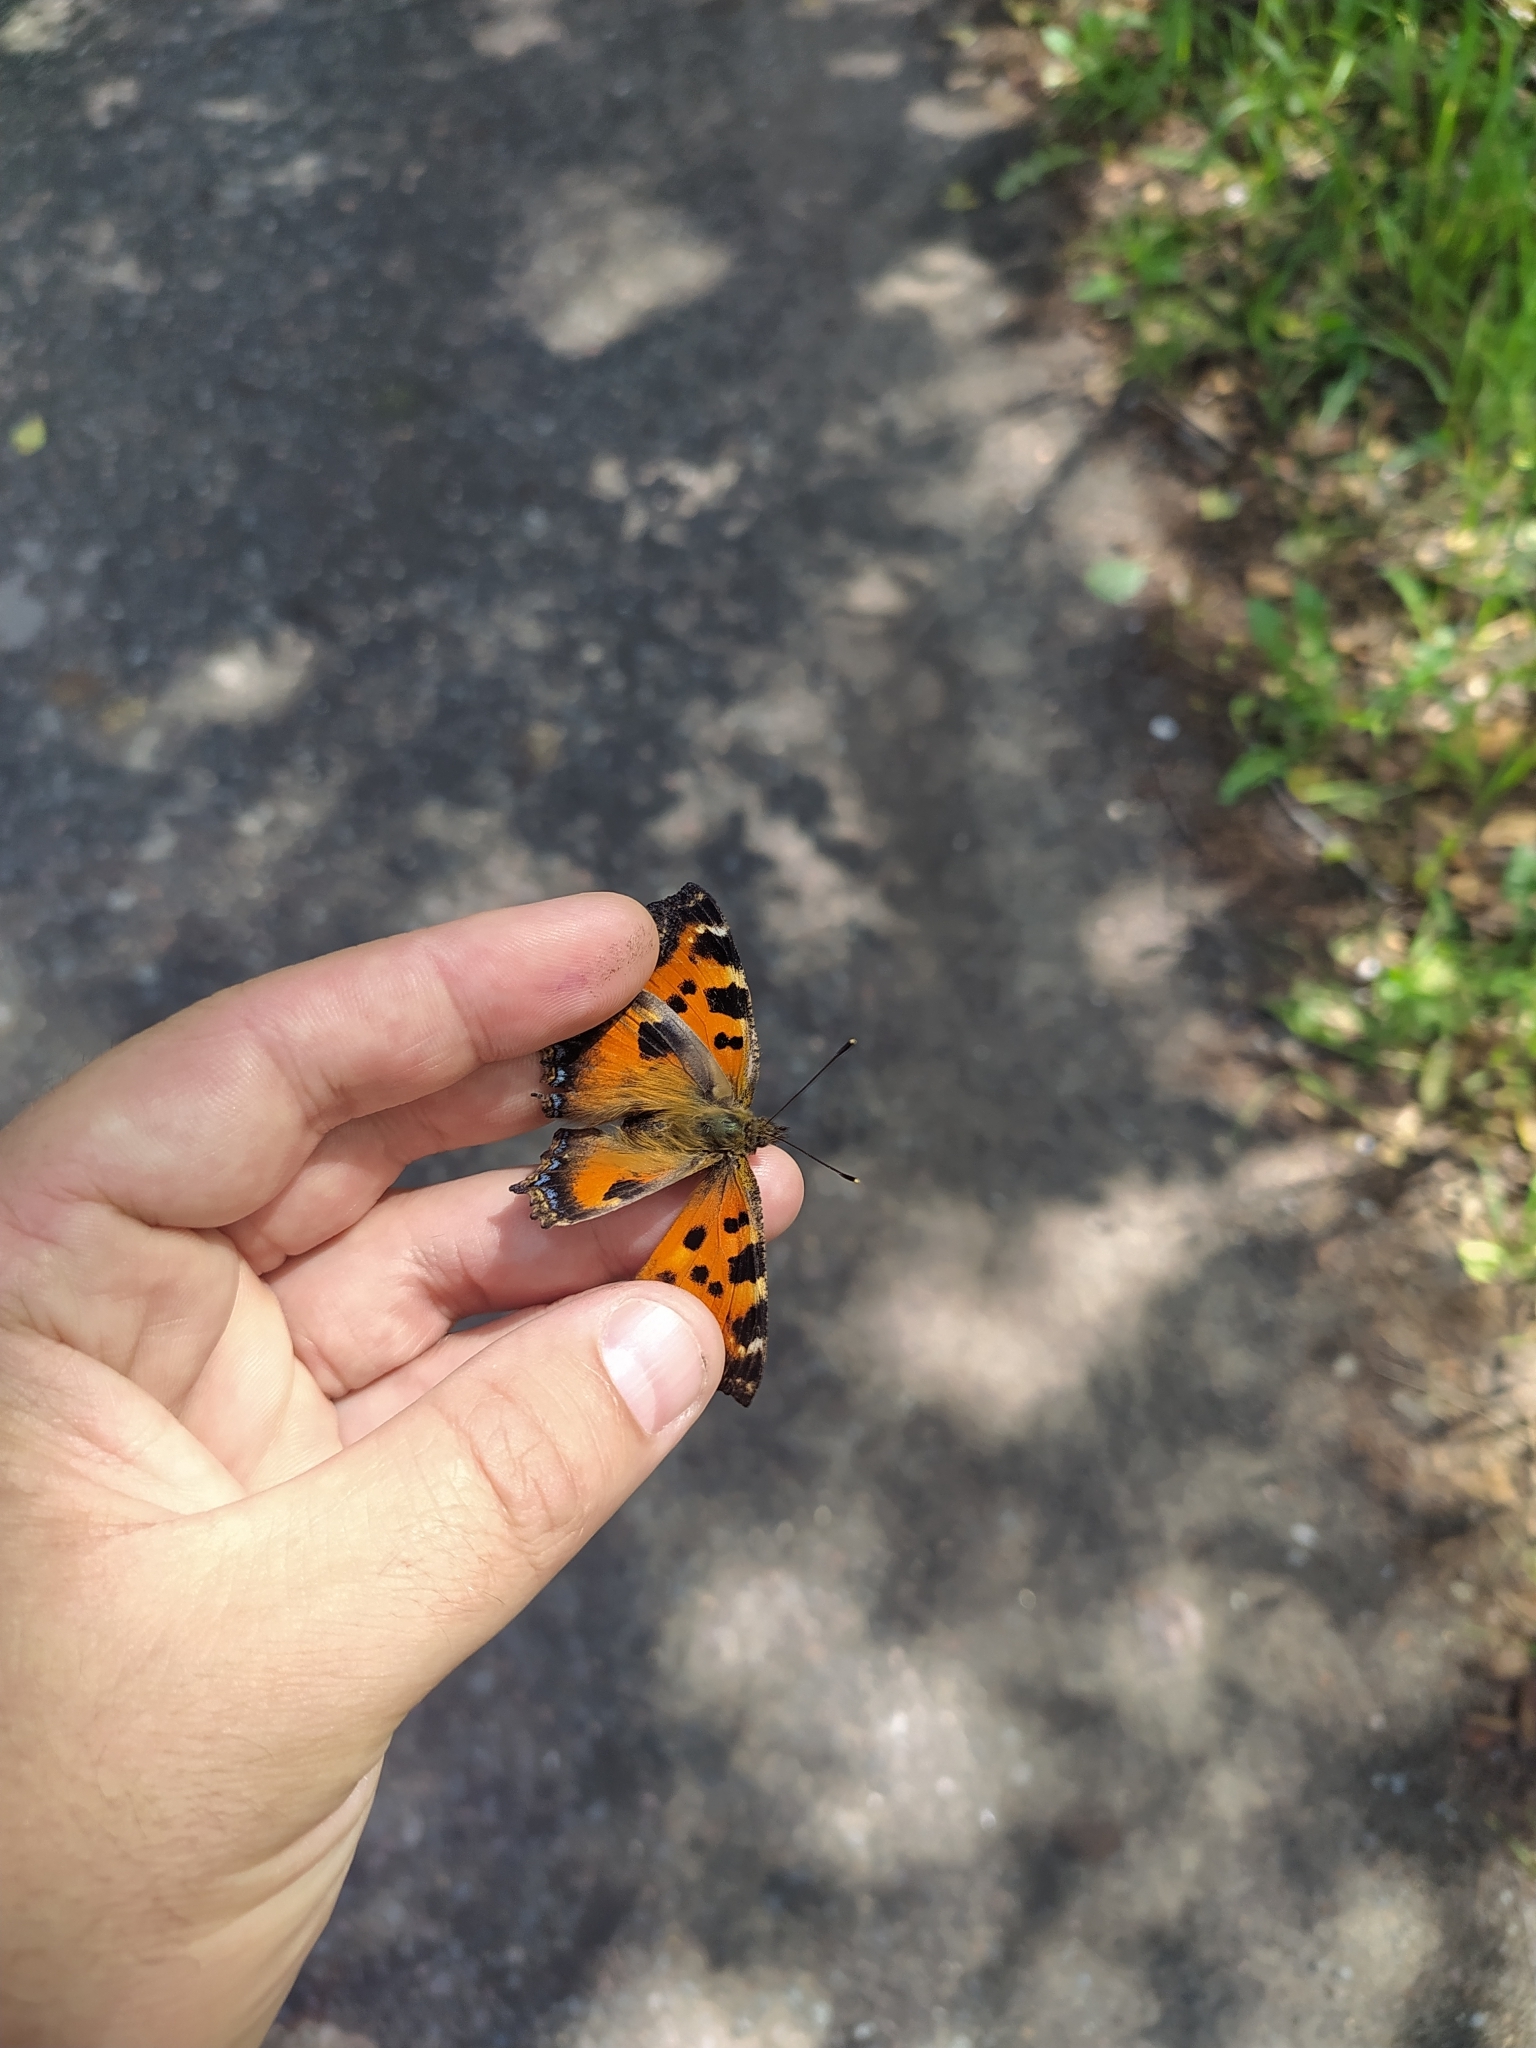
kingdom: Animalia
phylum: Arthropoda
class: Insecta
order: Lepidoptera
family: Nymphalidae
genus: Nymphalis
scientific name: Nymphalis xanthomelas
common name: Scarce tortoiseshell
